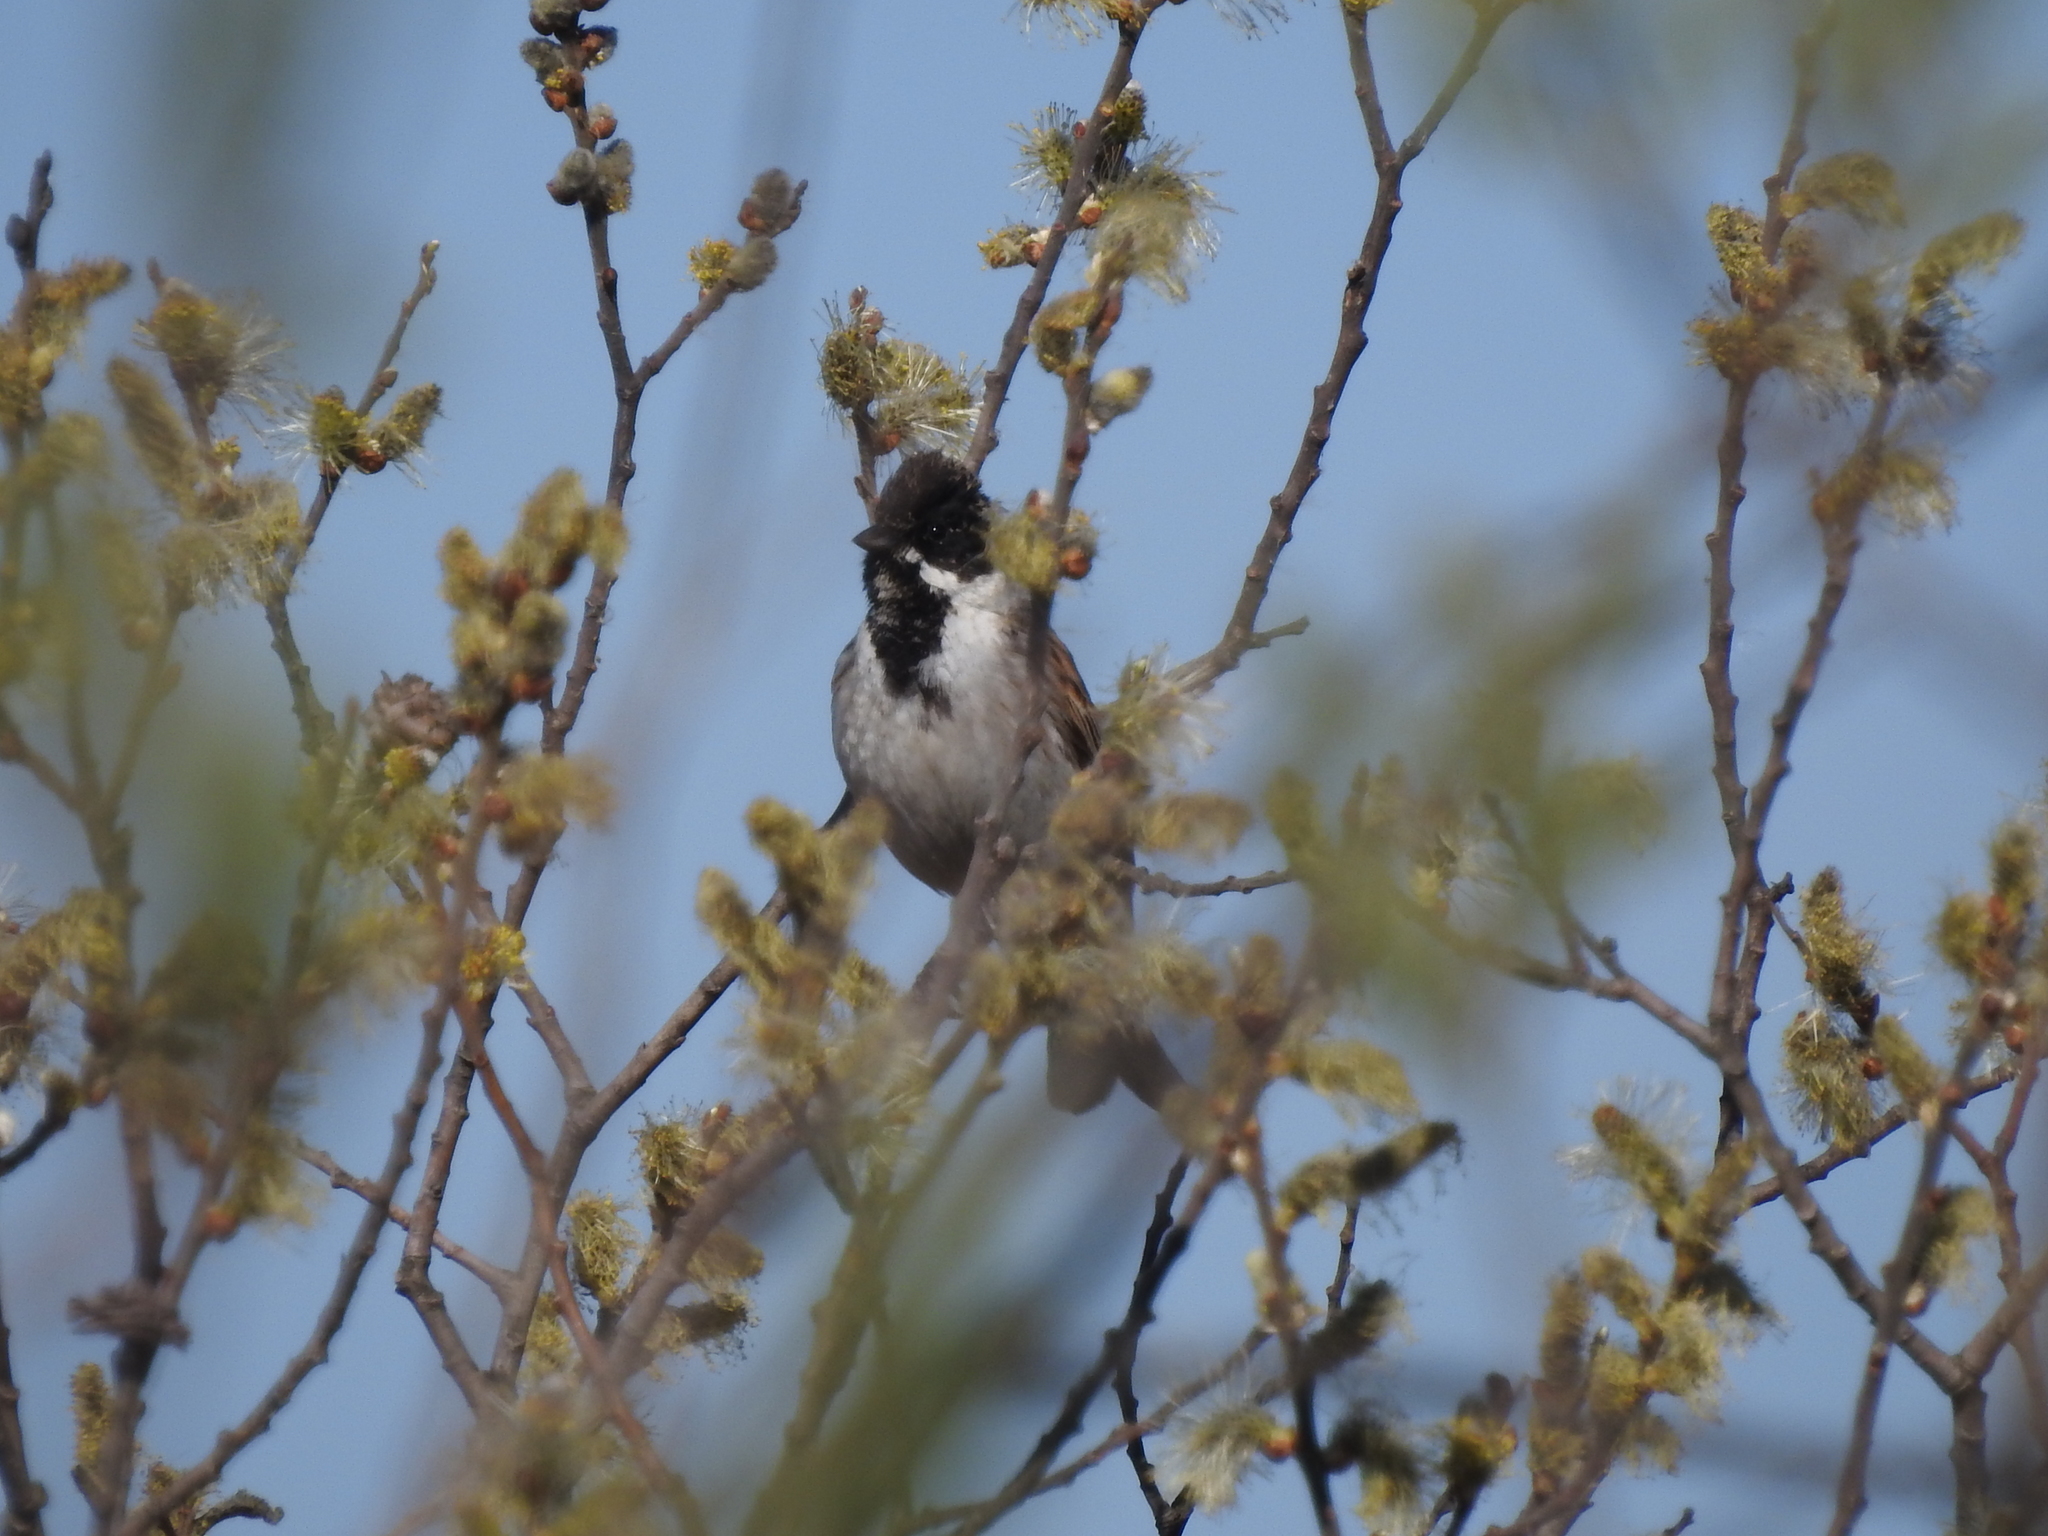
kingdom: Animalia
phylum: Chordata
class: Aves
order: Passeriformes
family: Emberizidae
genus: Emberiza
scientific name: Emberiza schoeniclus
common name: Reed bunting
